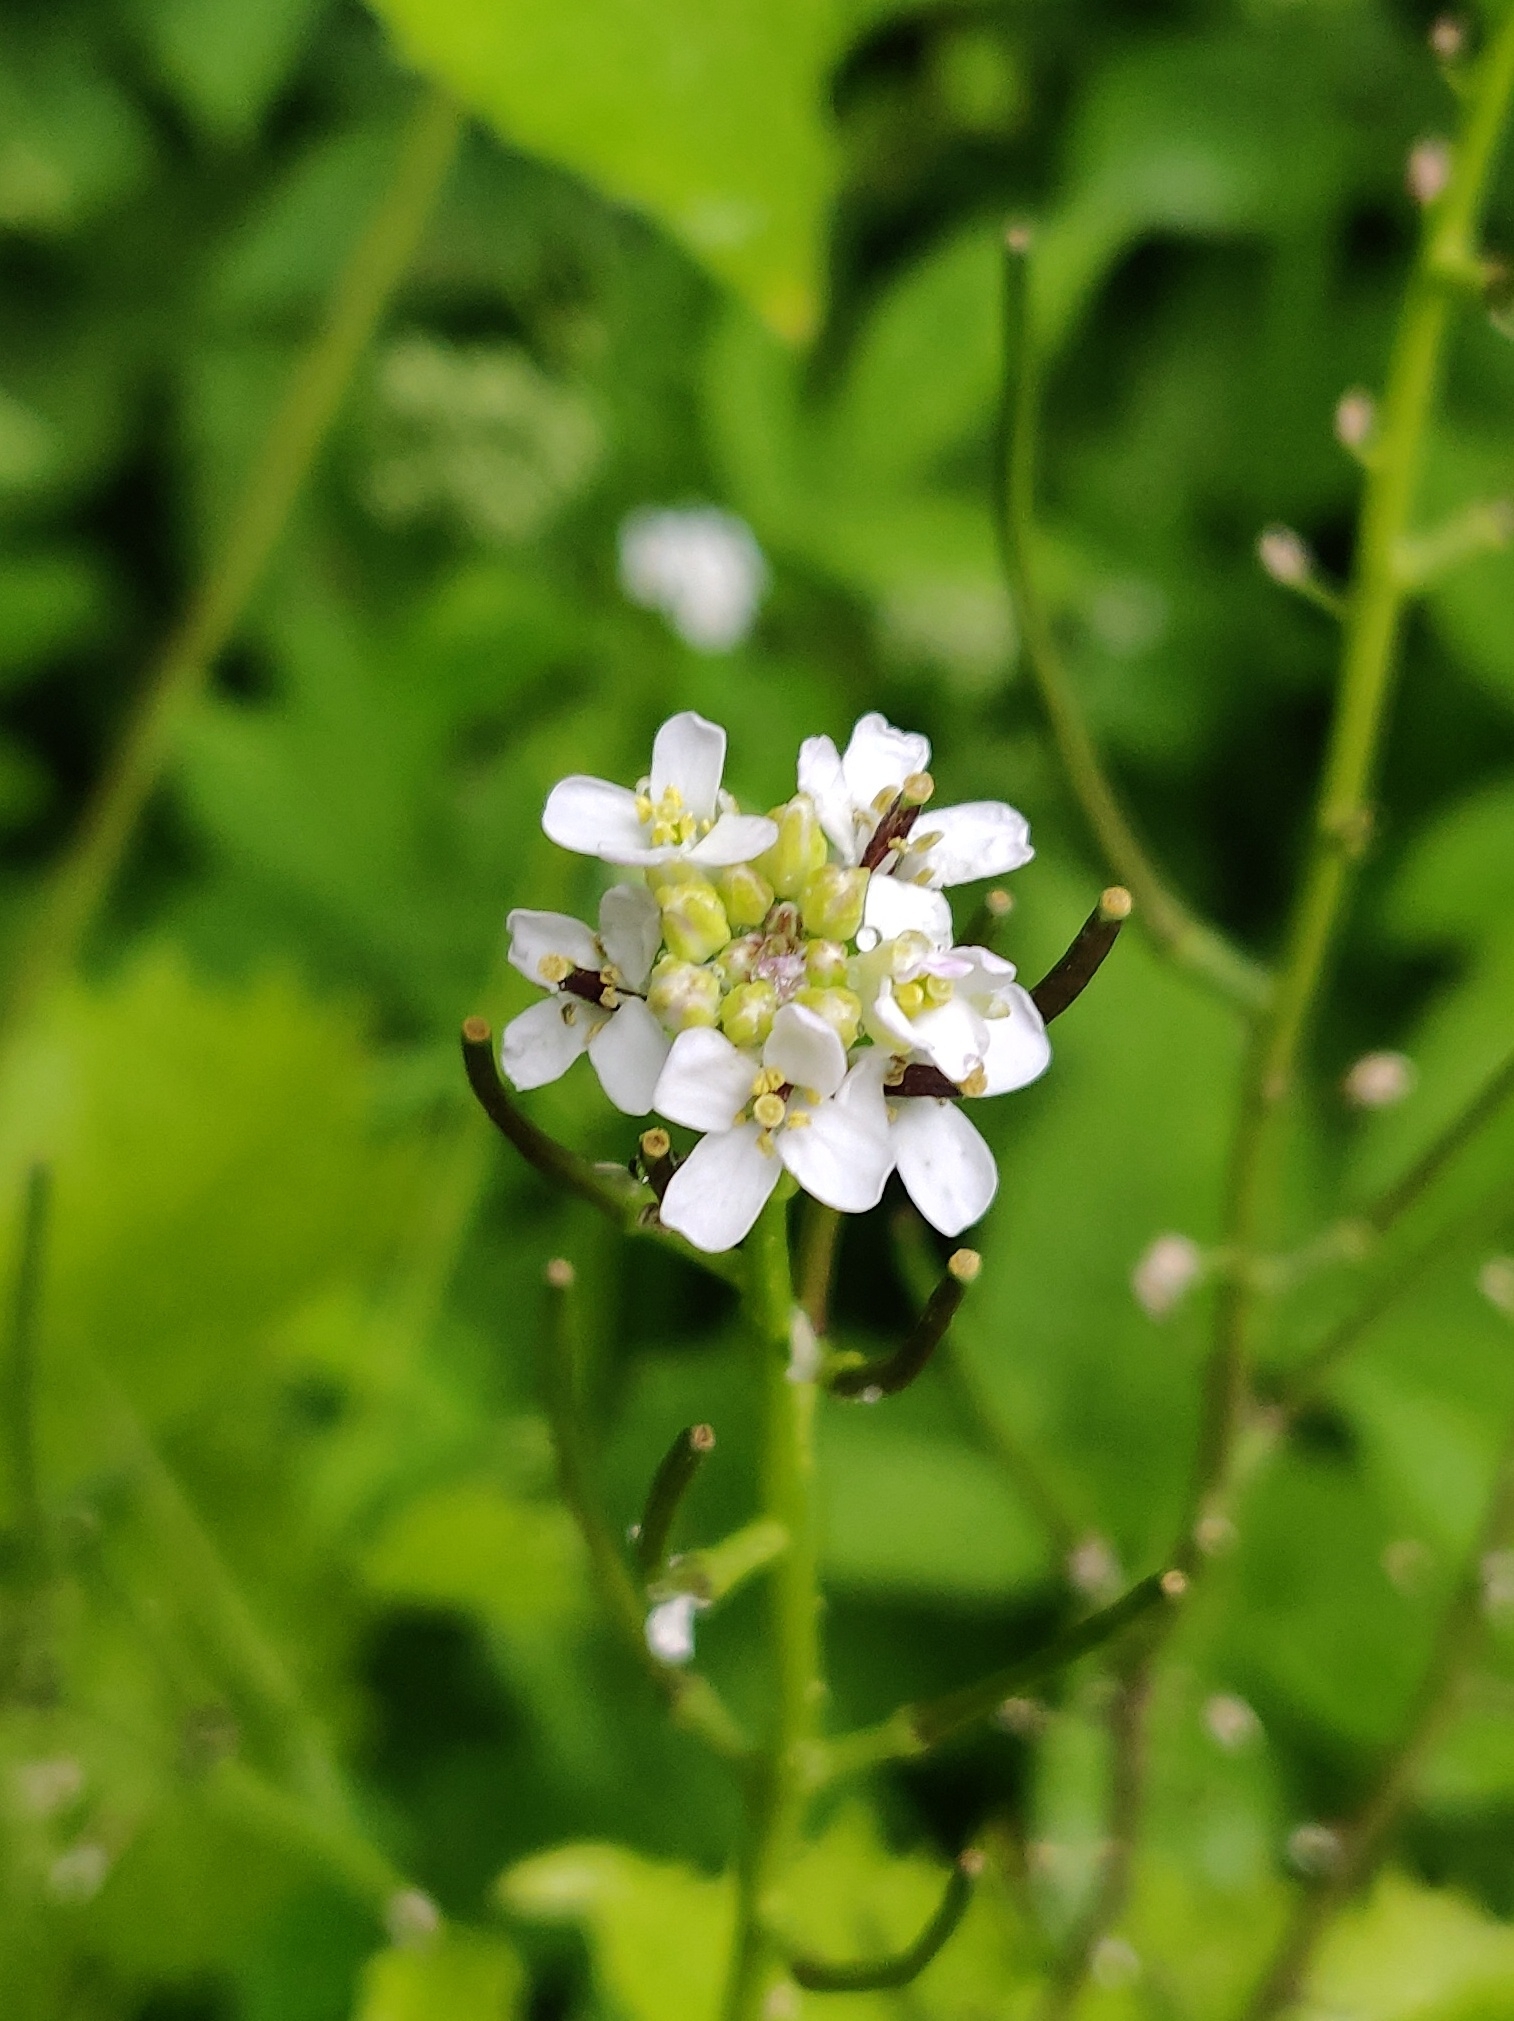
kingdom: Plantae
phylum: Tracheophyta
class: Magnoliopsida
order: Brassicales
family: Brassicaceae
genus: Alliaria
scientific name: Alliaria petiolata
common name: Garlic mustard
